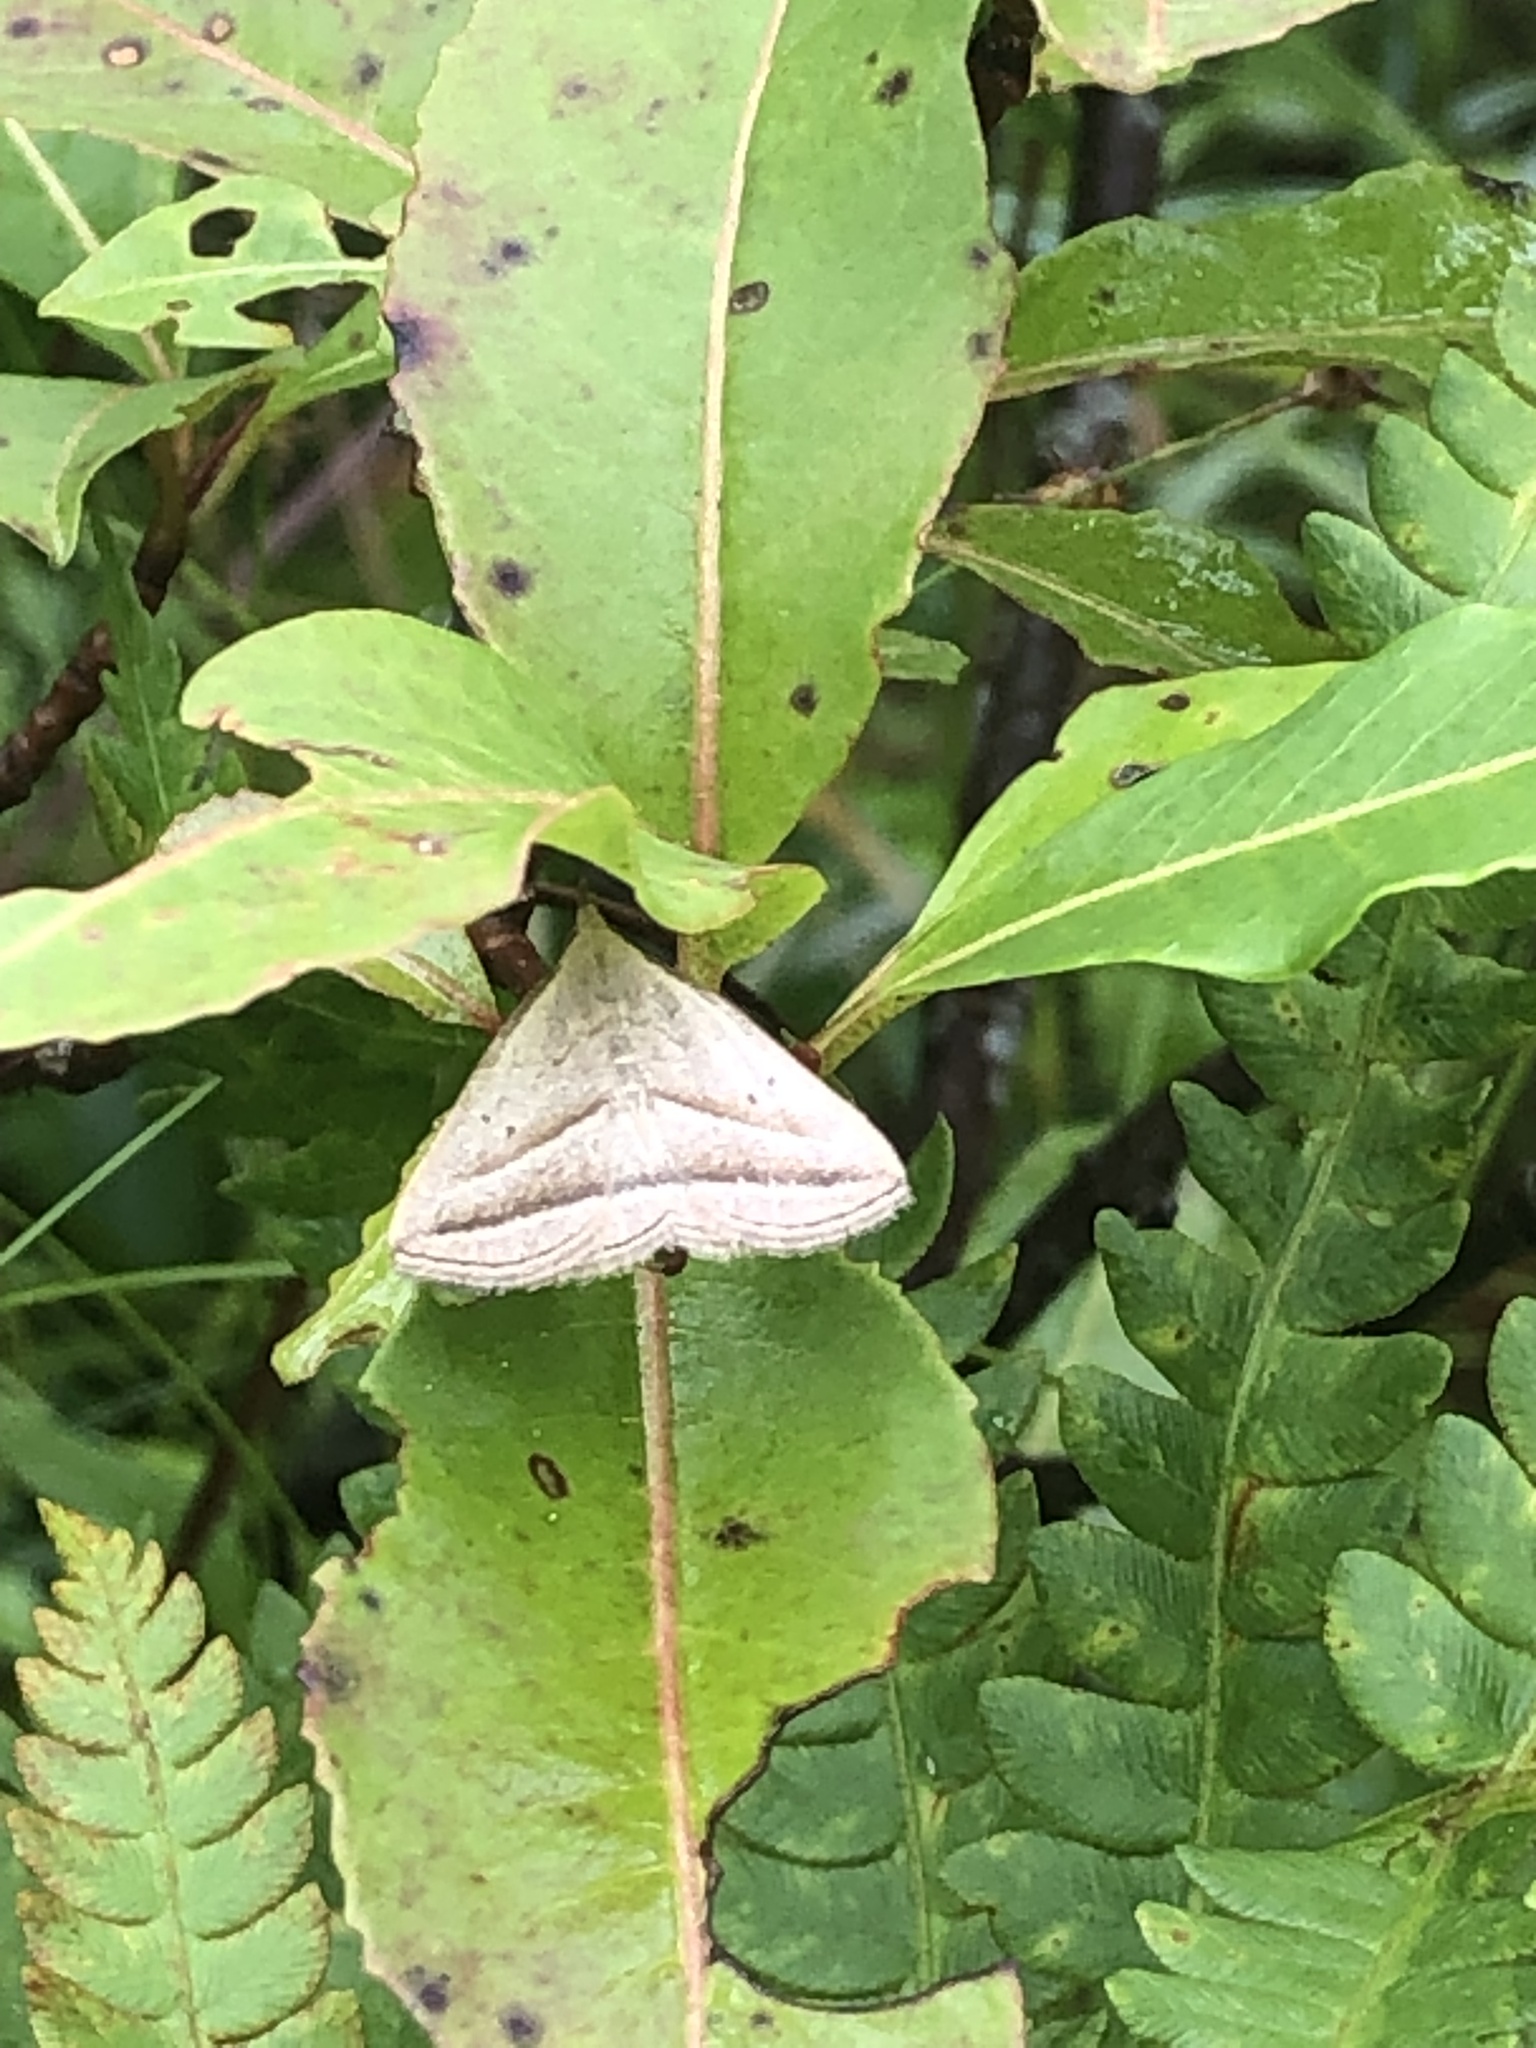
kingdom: Animalia
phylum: Arthropoda
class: Insecta
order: Lepidoptera
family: Erebidae
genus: Macrochilo
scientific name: Macrochilo absorptalis
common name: Slant-lined owlet
